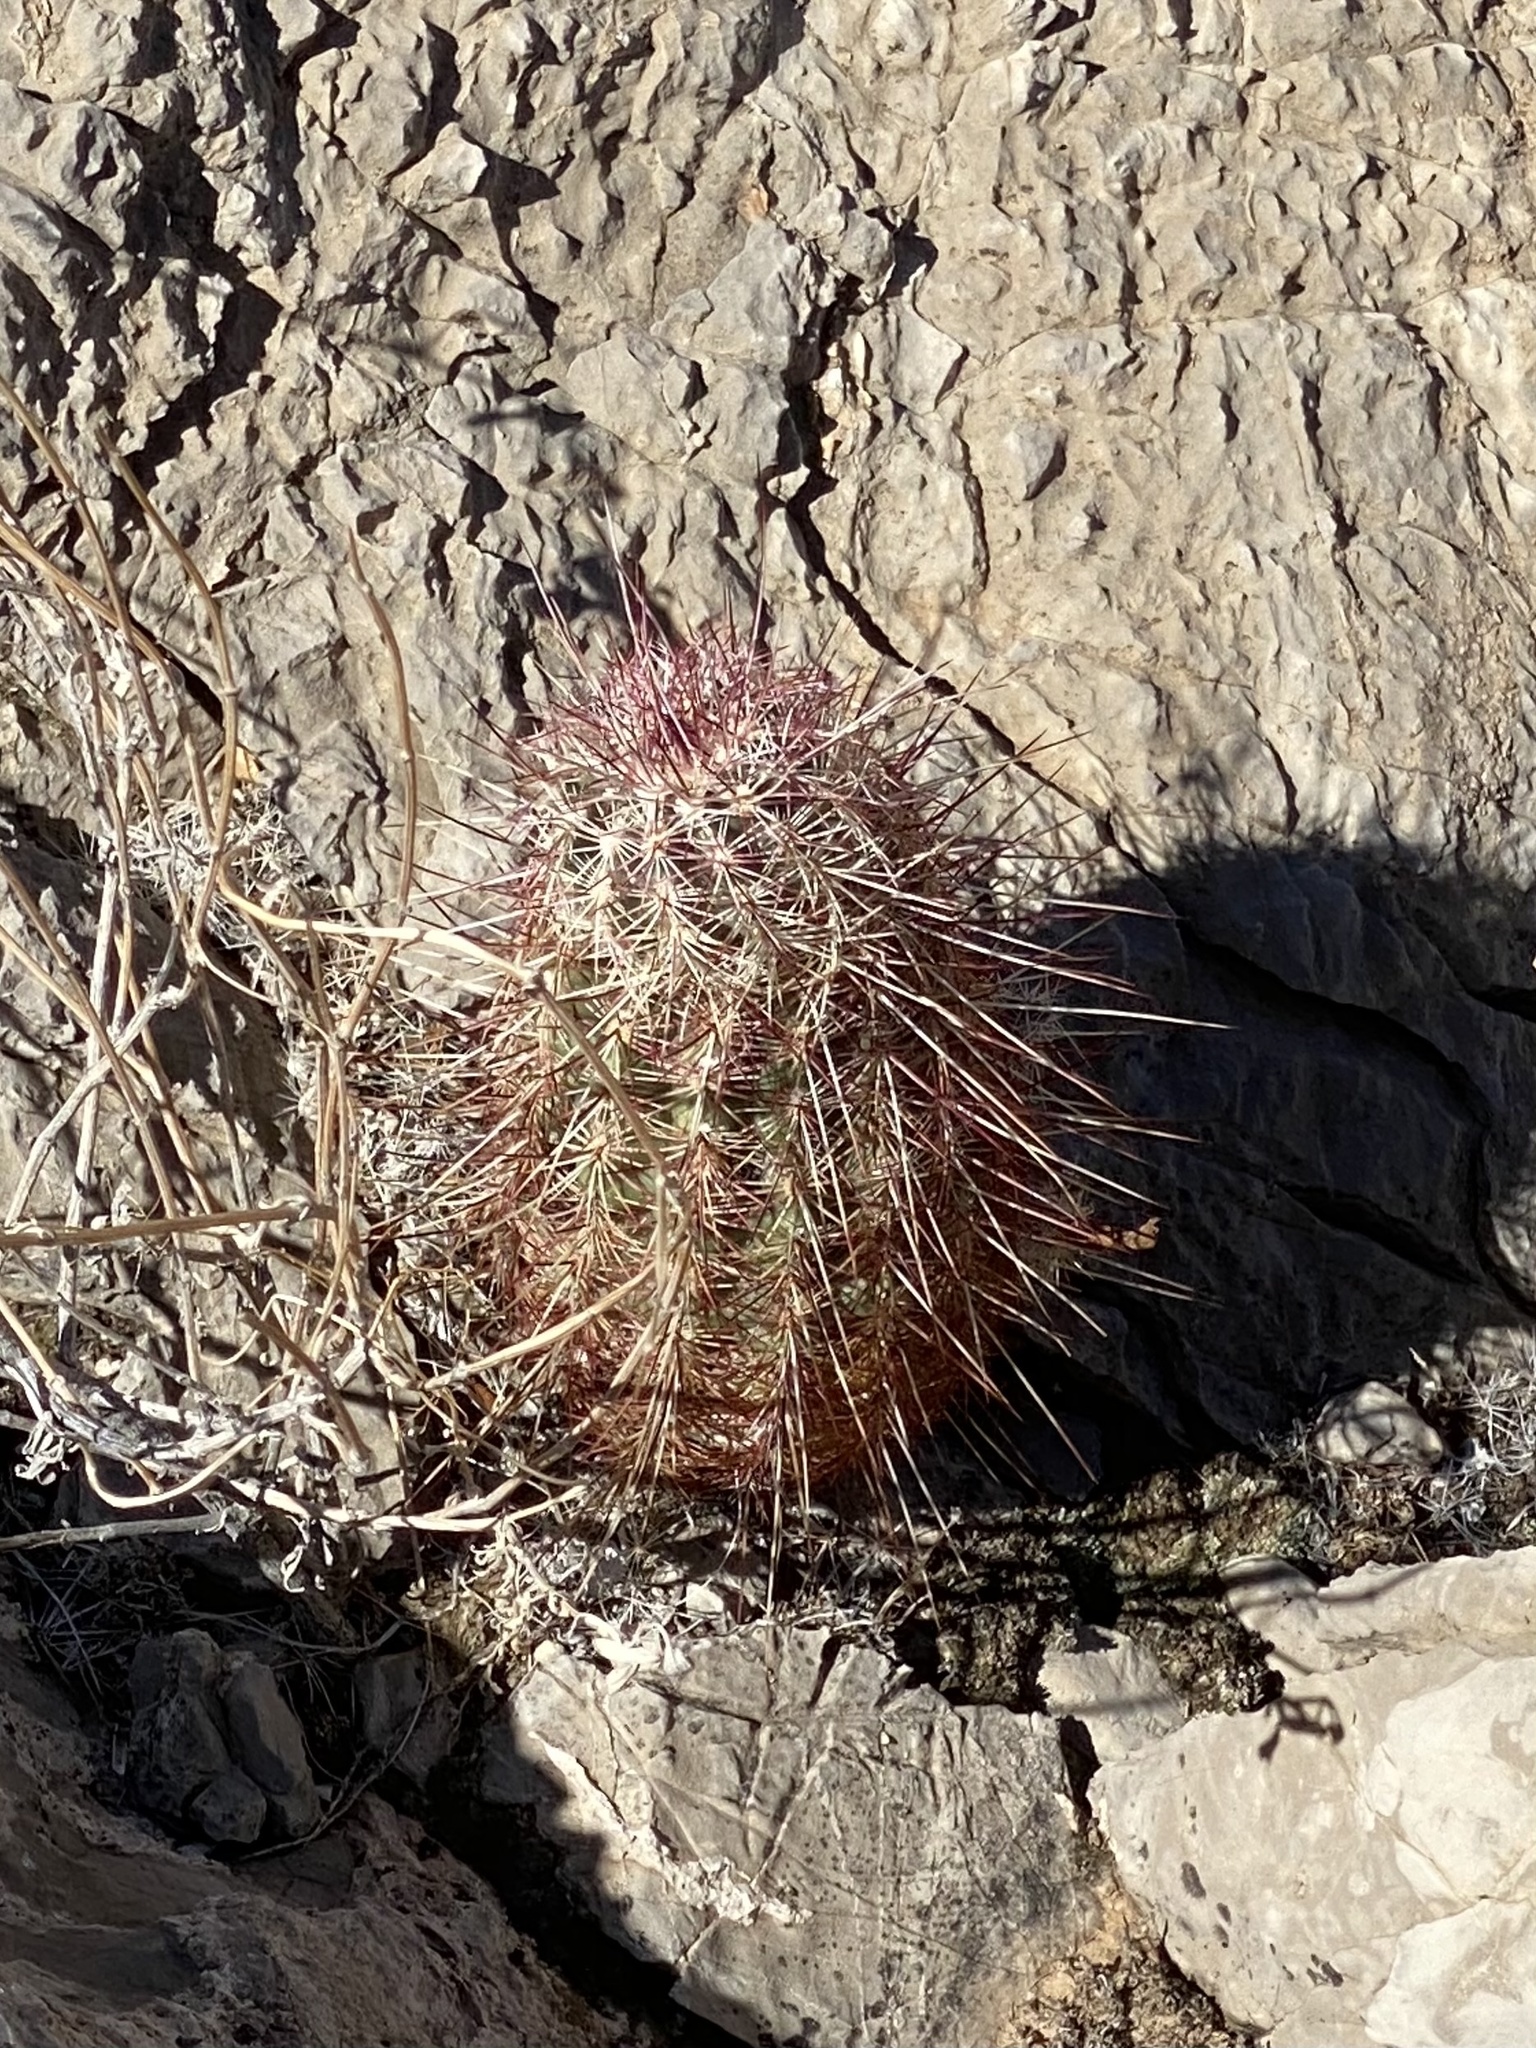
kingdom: Plantae
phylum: Tracheophyta
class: Magnoliopsida
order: Caryophyllales
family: Cactaceae
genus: Echinocereus
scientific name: Echinocereus viridiflorus
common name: Nylon hedgehog cactus
